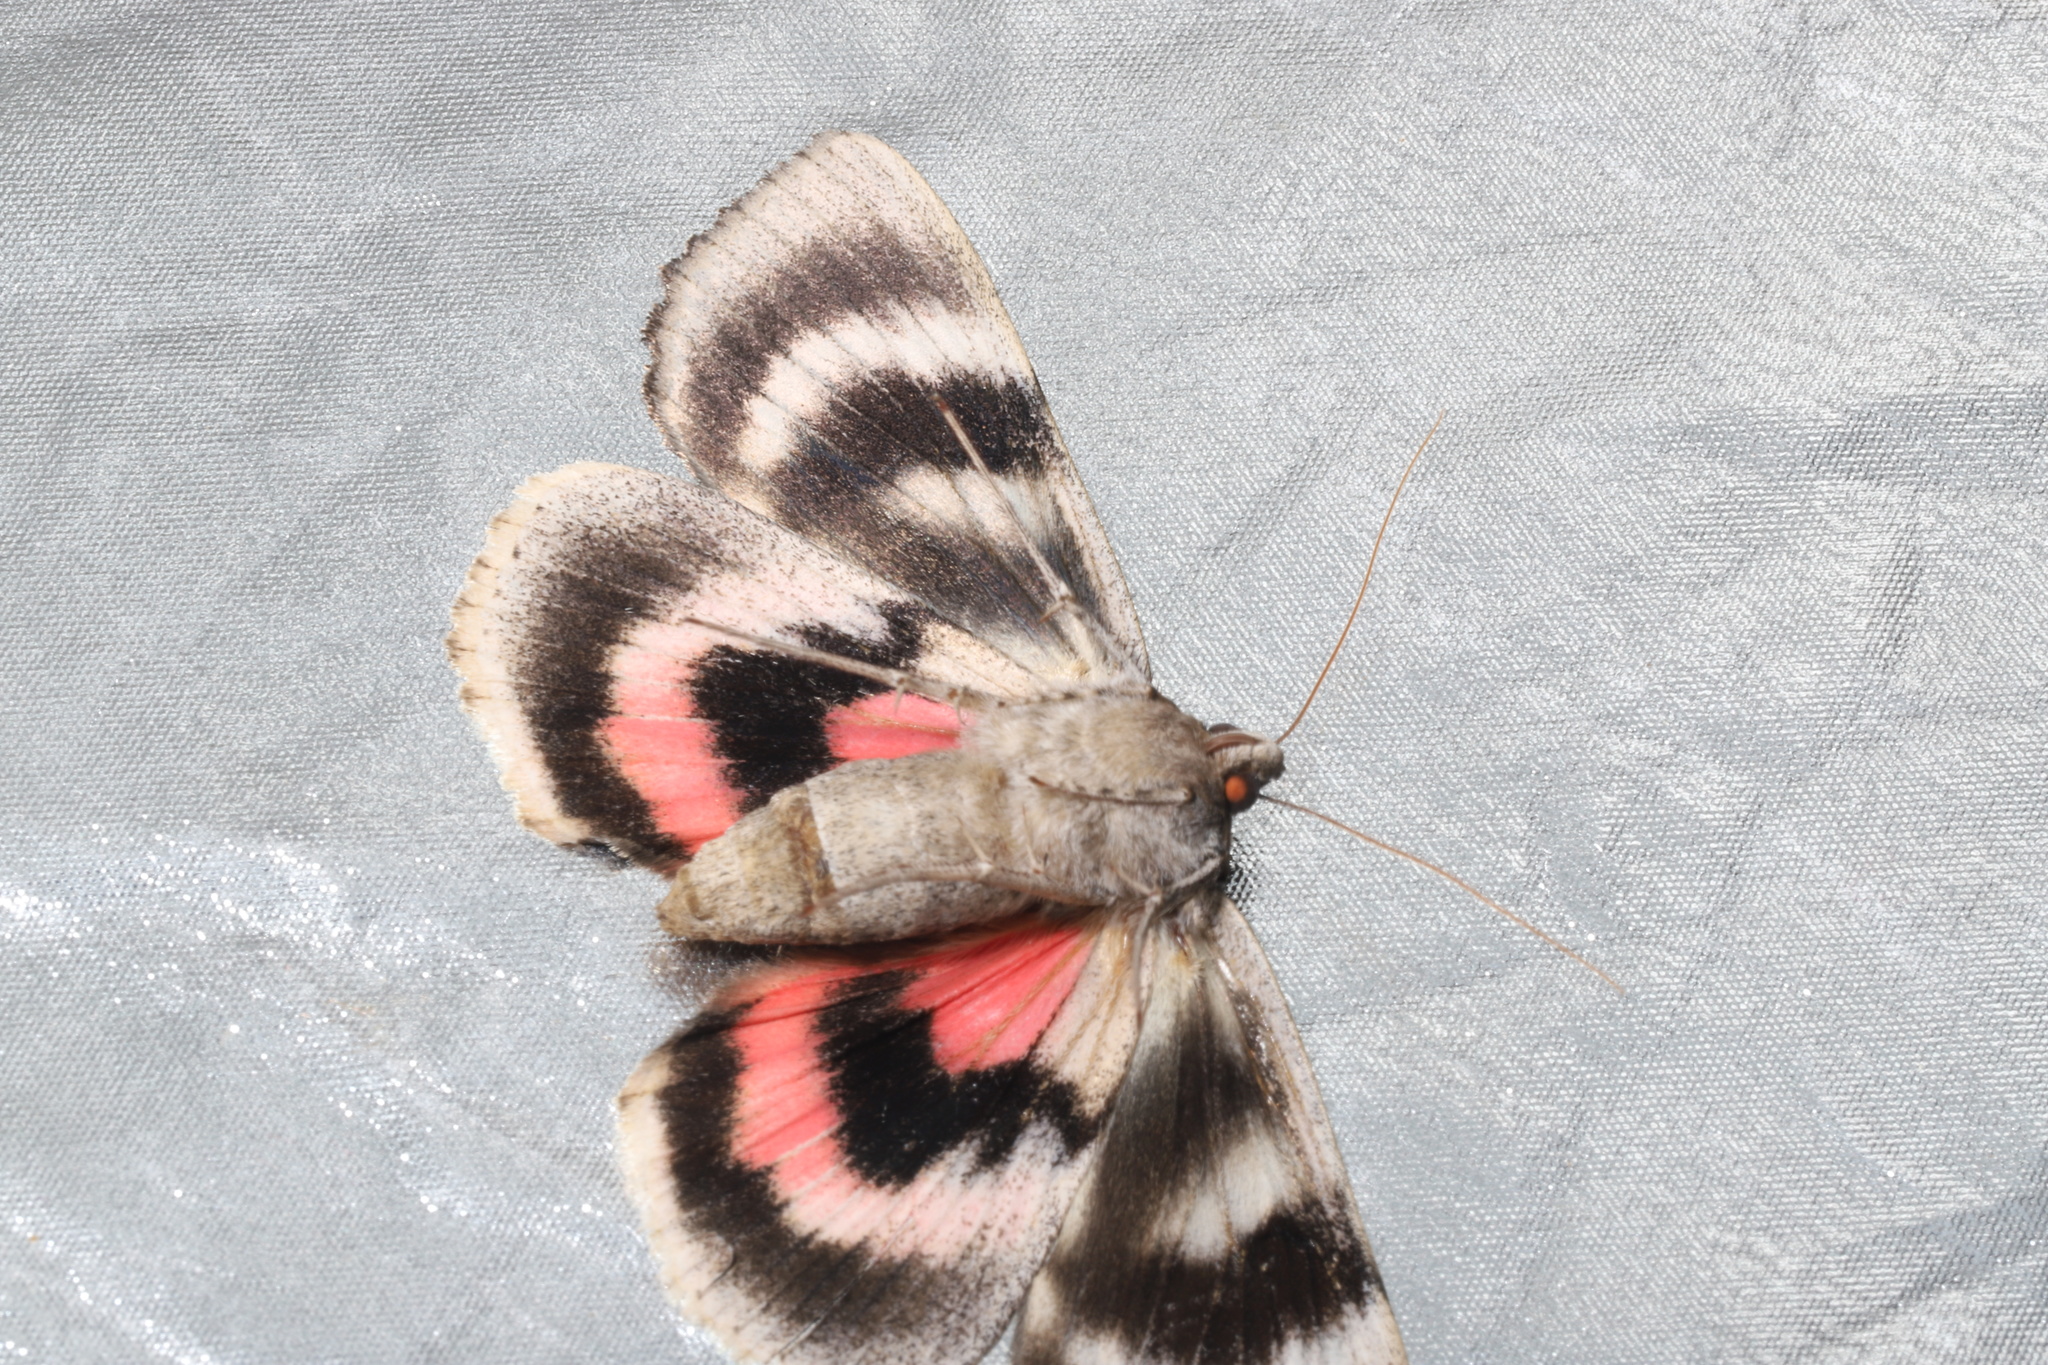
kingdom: Animalia
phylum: Arthropoda
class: Insecta
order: Lepidoptera
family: Erebidae
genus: Catocala
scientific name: Catocala concumbens
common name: Pink underwing
